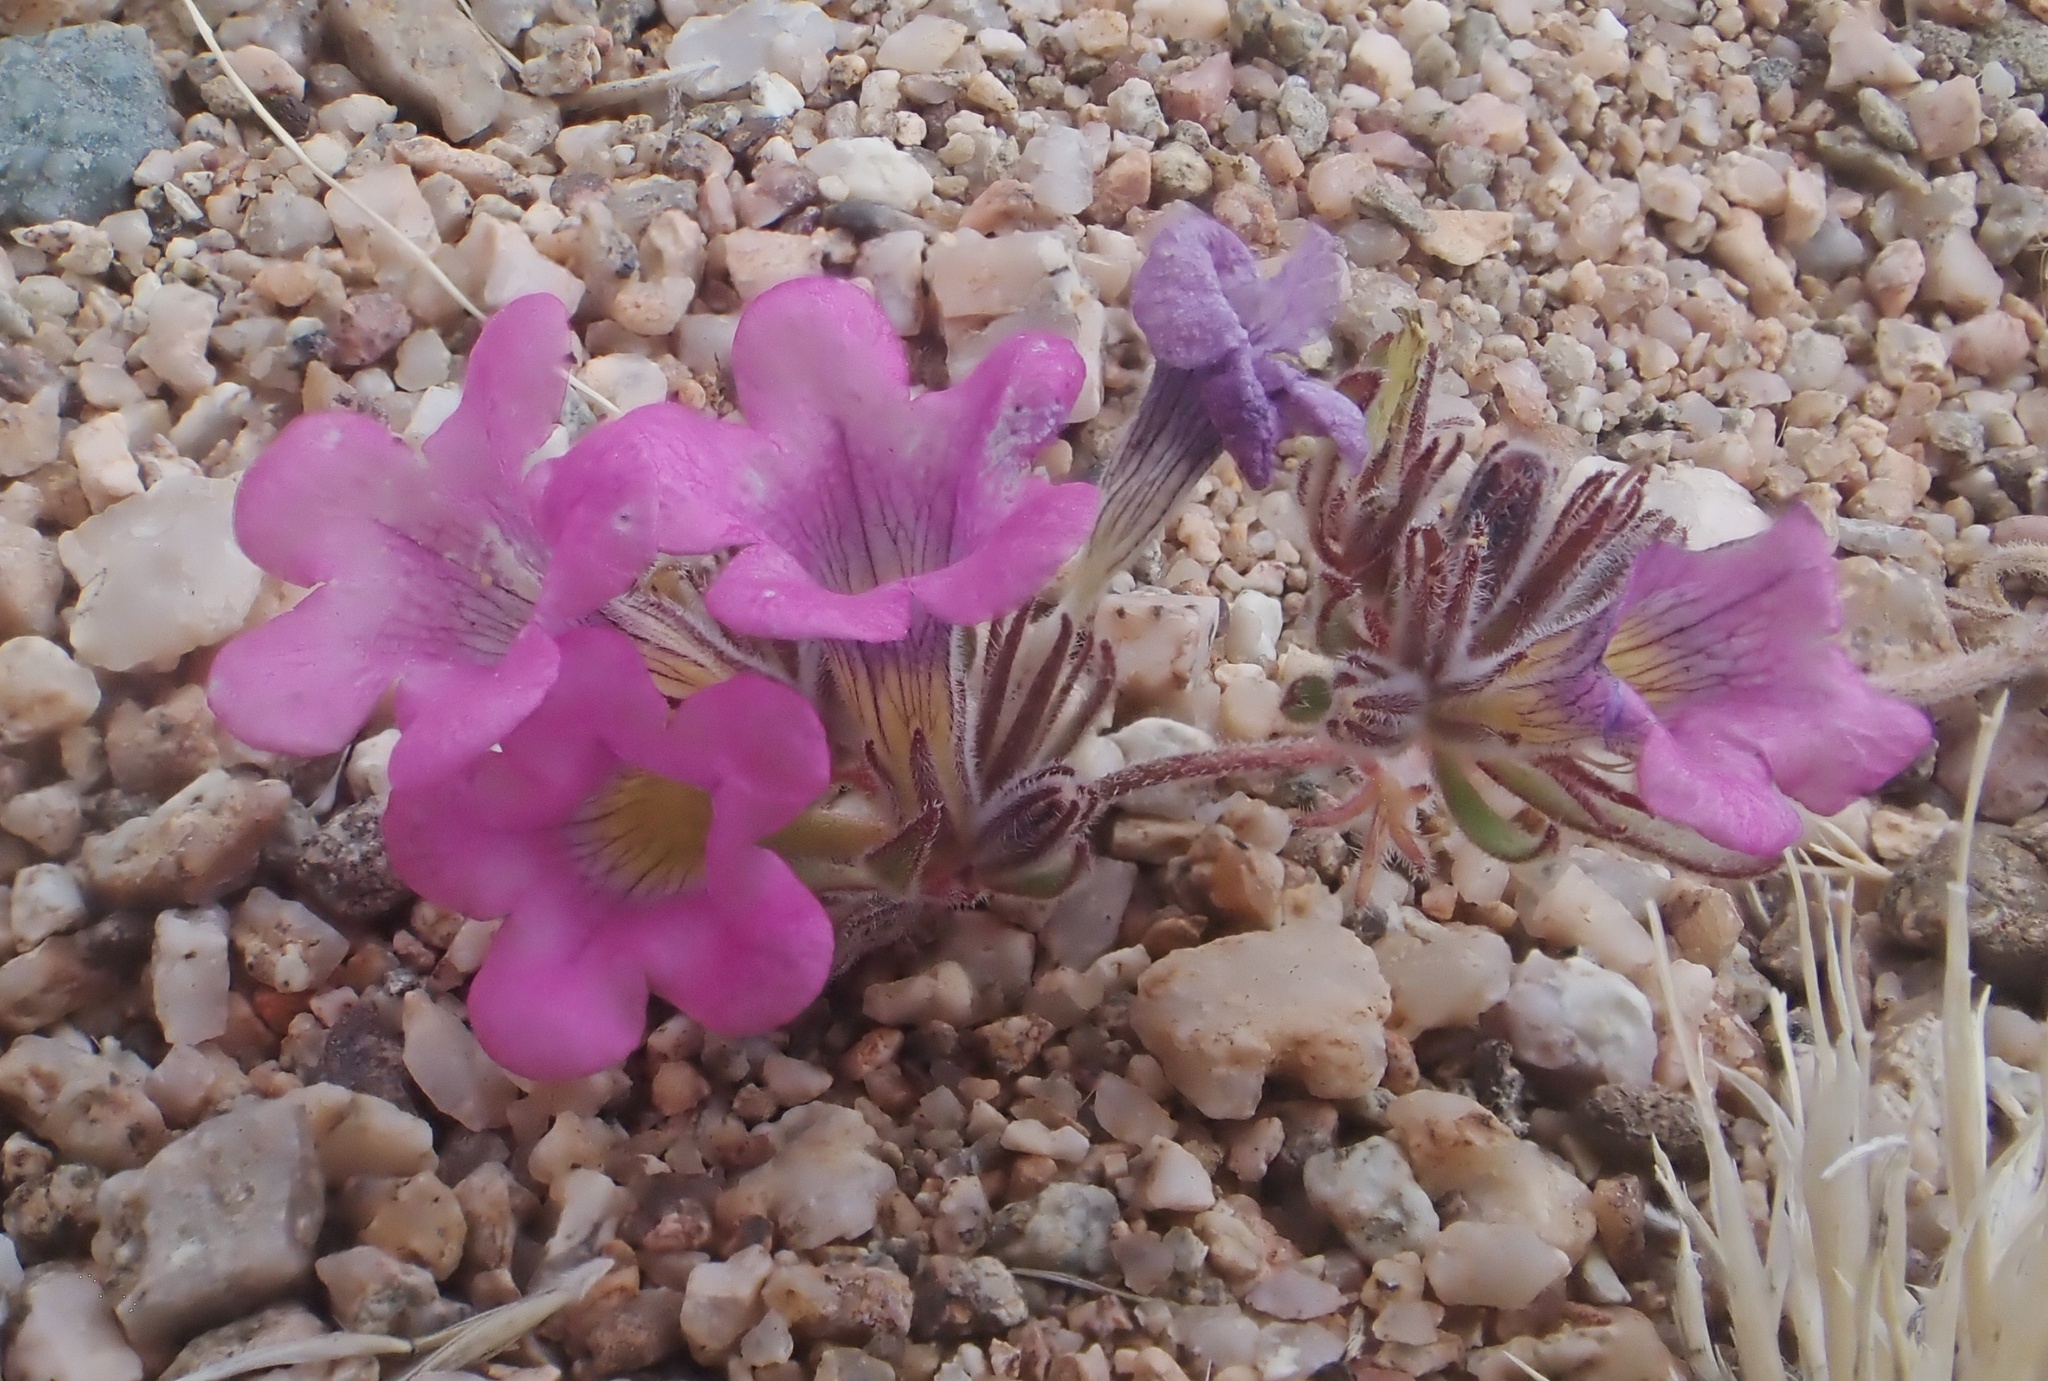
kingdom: Plantae
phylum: Tracheophyta
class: Magnoliopsida
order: Boraginales
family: Namaceae
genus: Nama
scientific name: Nama demissa
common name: Leafy nama
